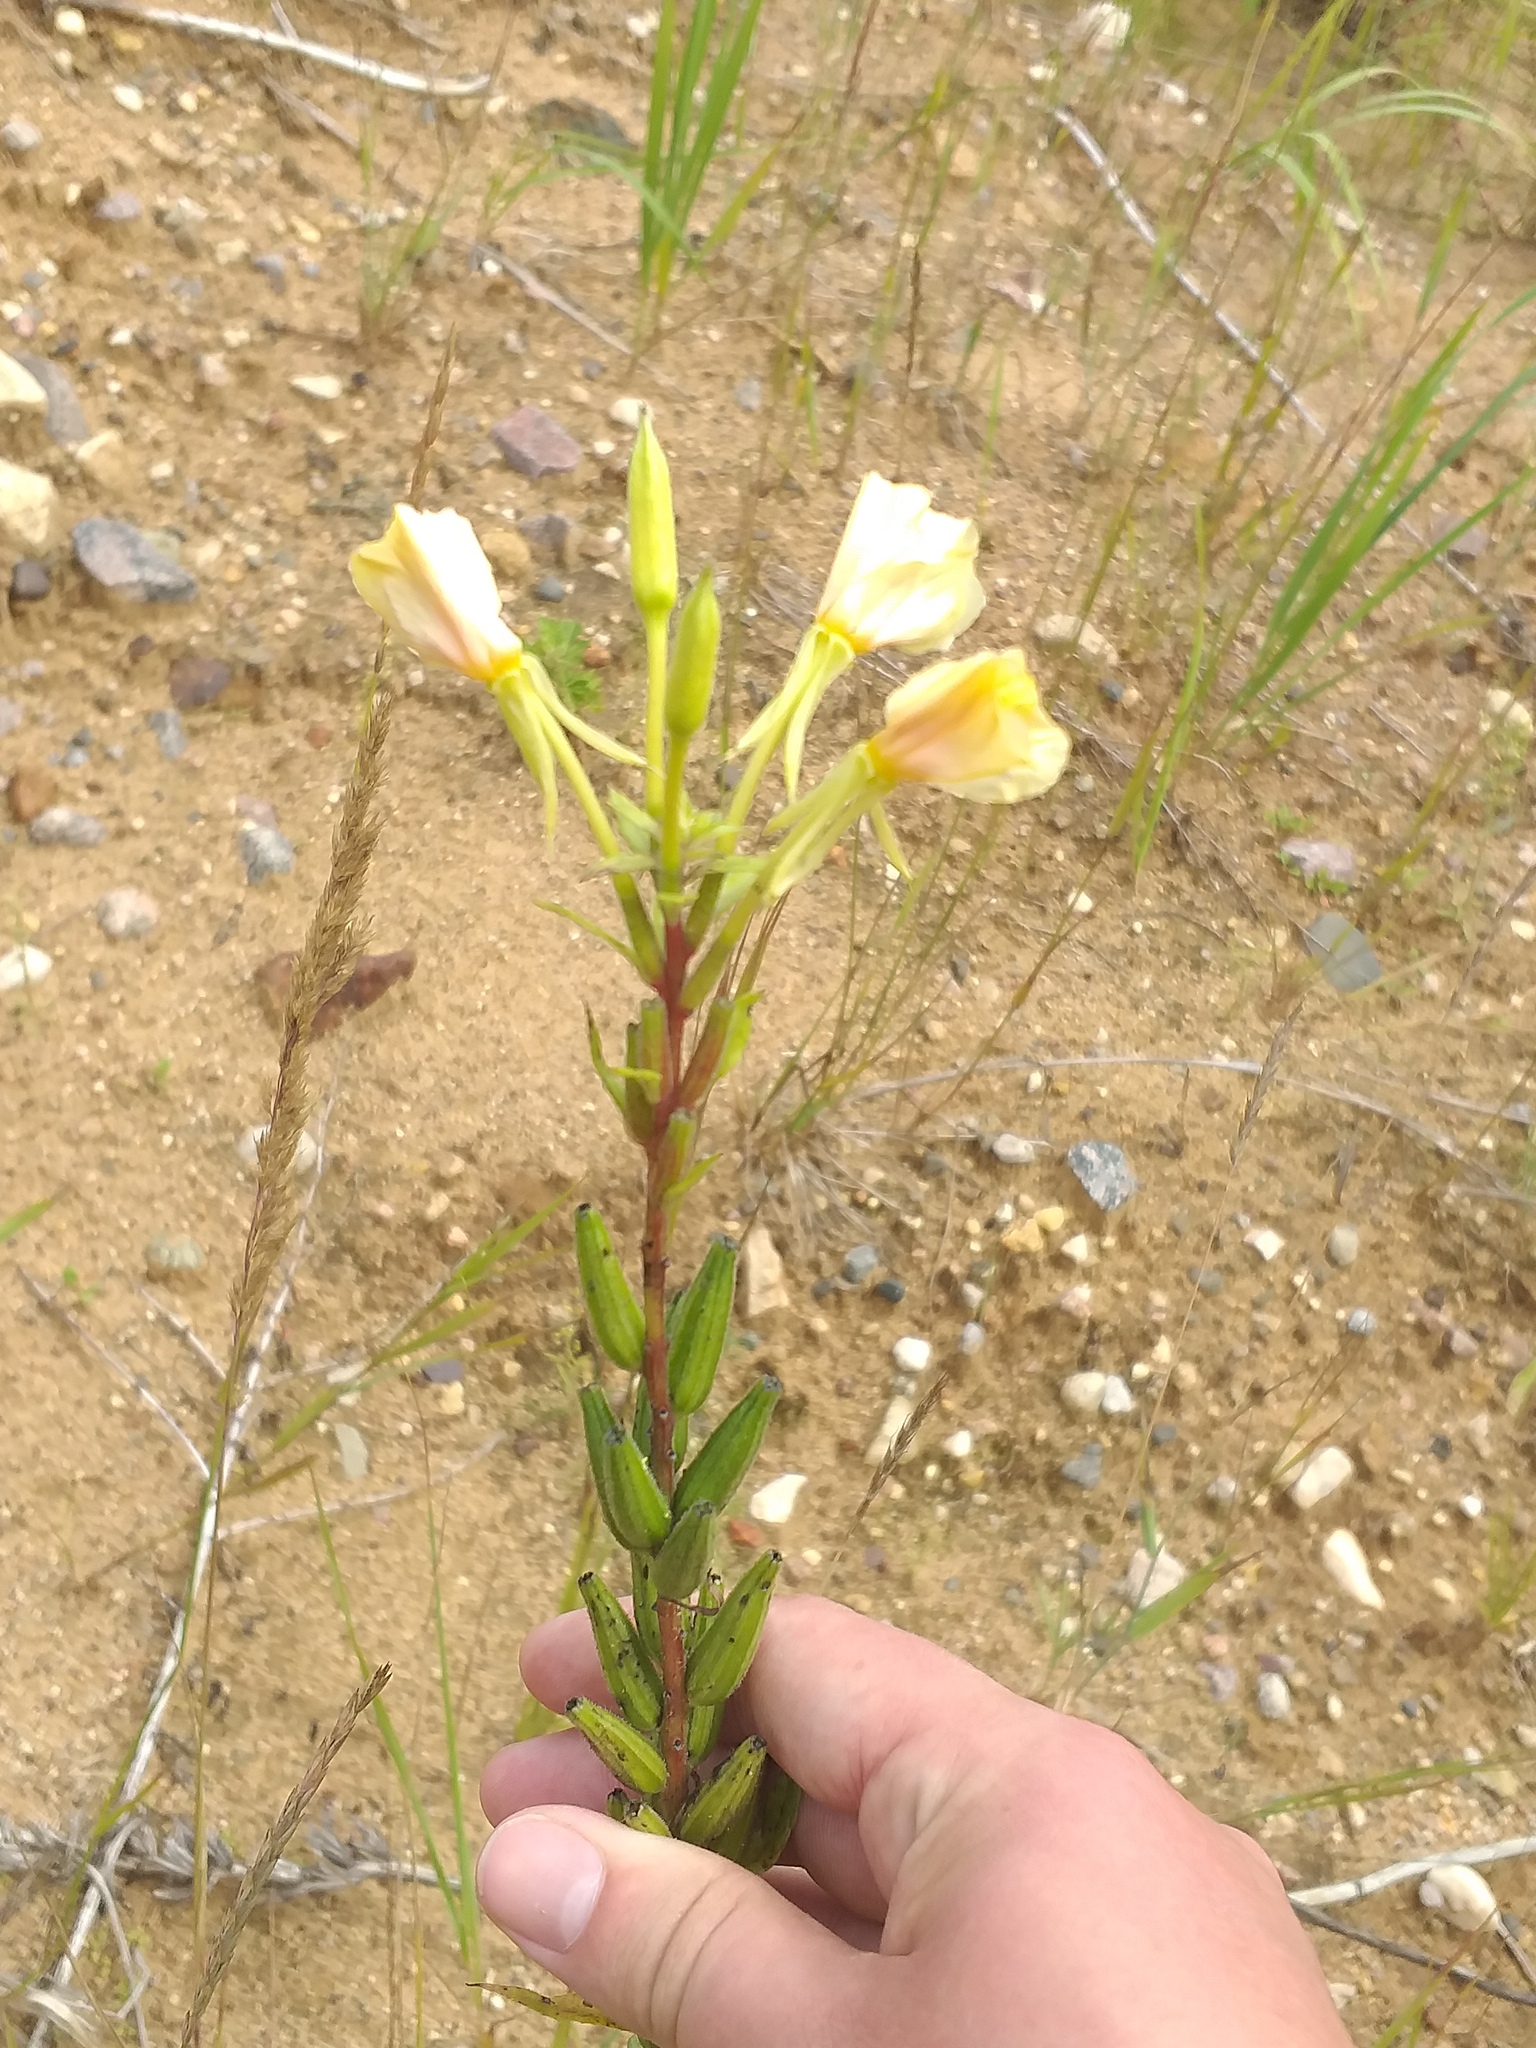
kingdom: Plantae
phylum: Tracheophyta
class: Magnoliopsida
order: Myrtales
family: Onagraceae
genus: Oenothera
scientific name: Oenothera rubricaulis
